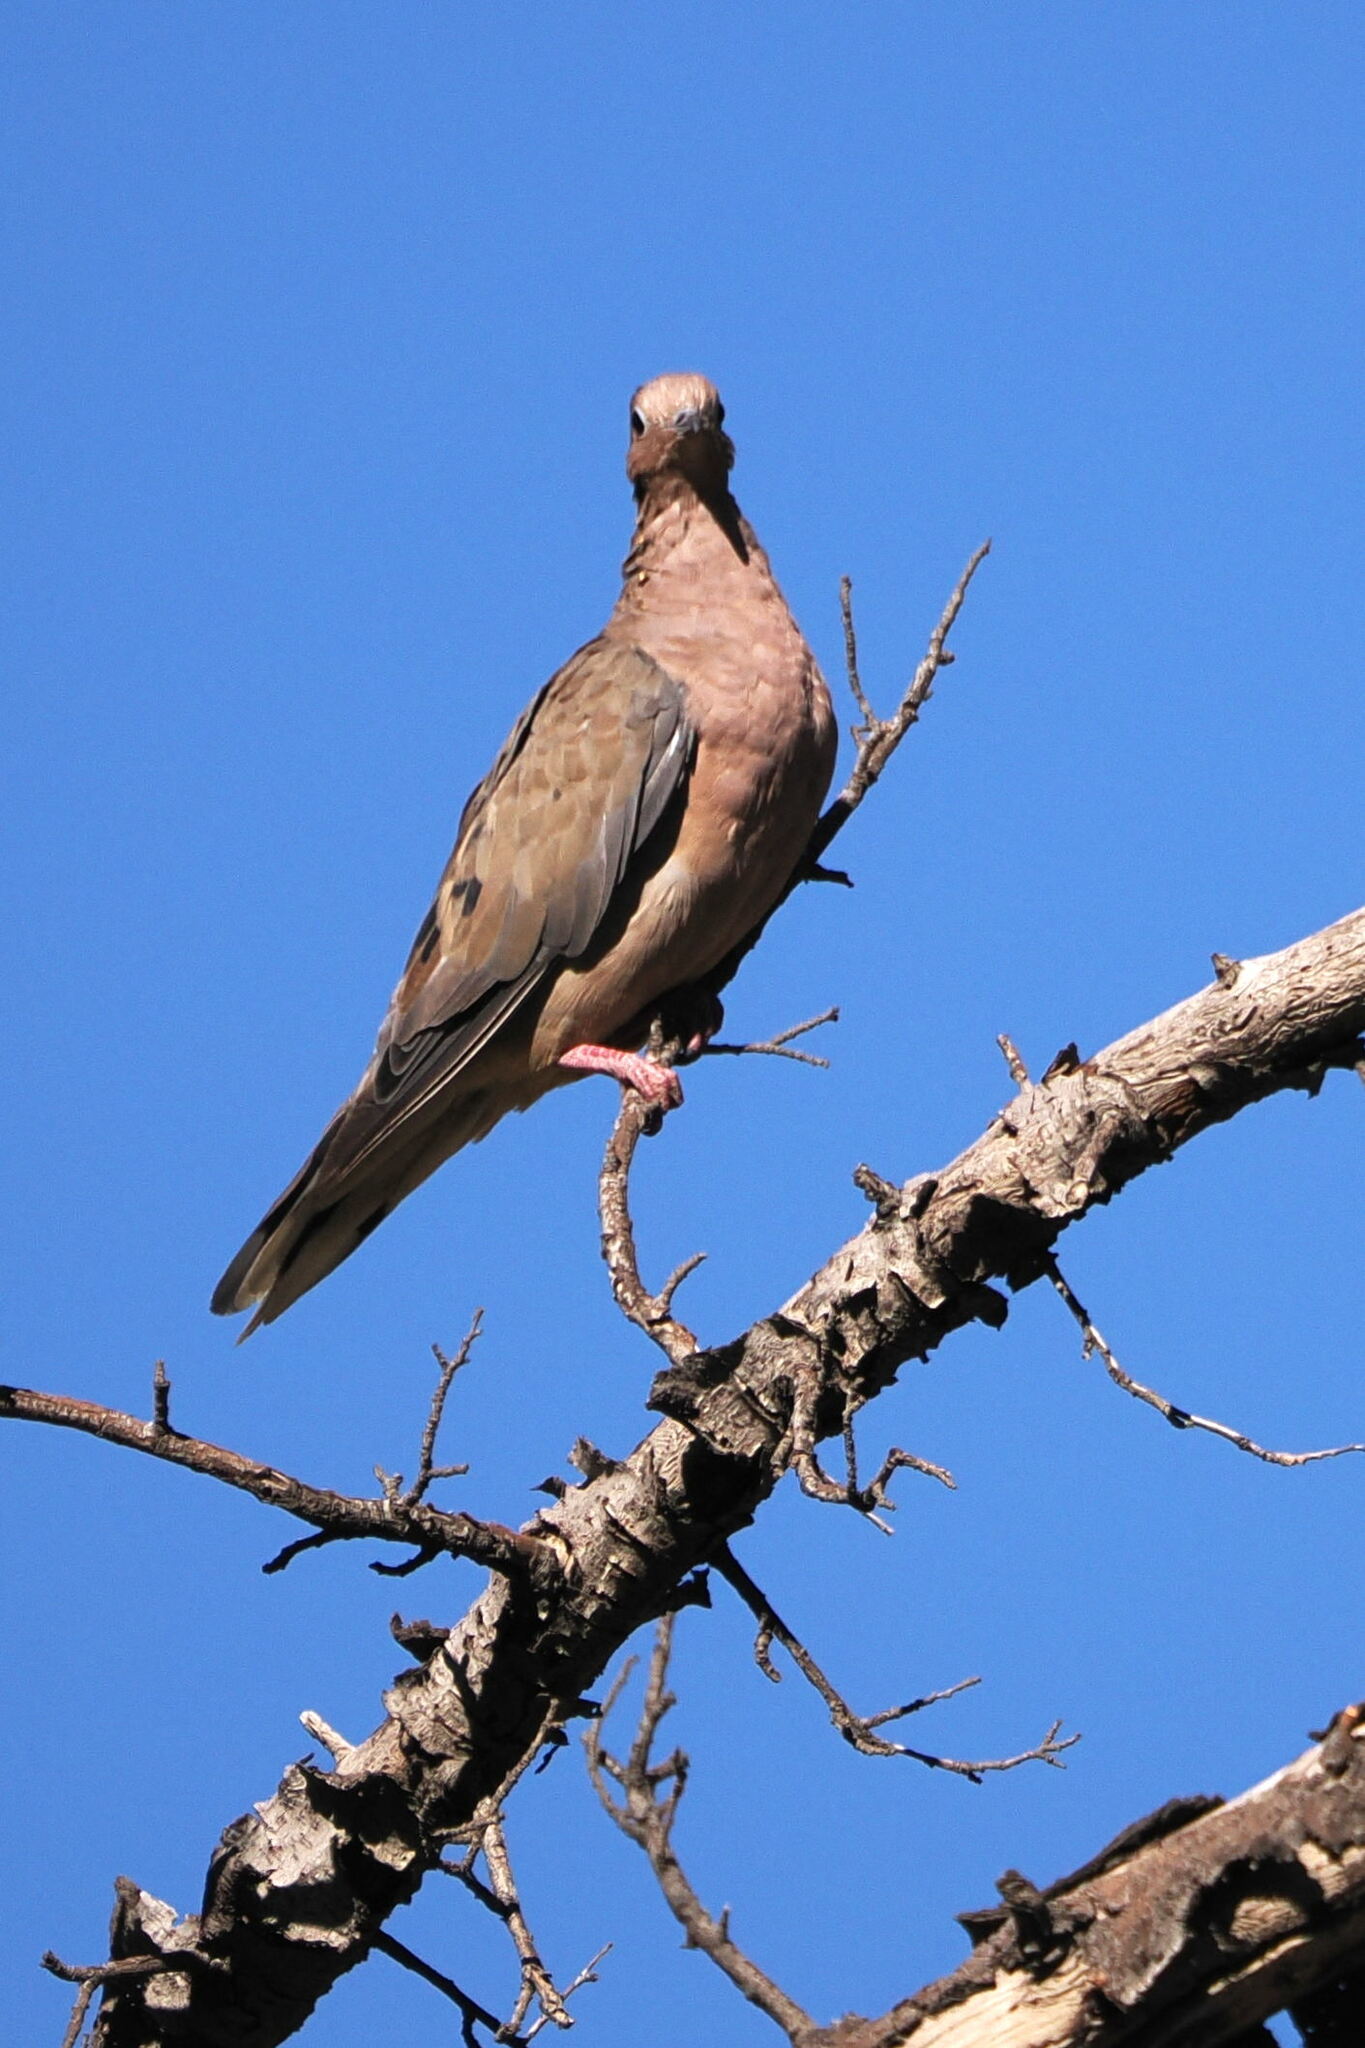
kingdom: Animalia
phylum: Chordata
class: Aves
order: Columbiformes
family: Columbidae
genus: Zenaida
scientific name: Zenaida auriculata
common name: Eared dove
